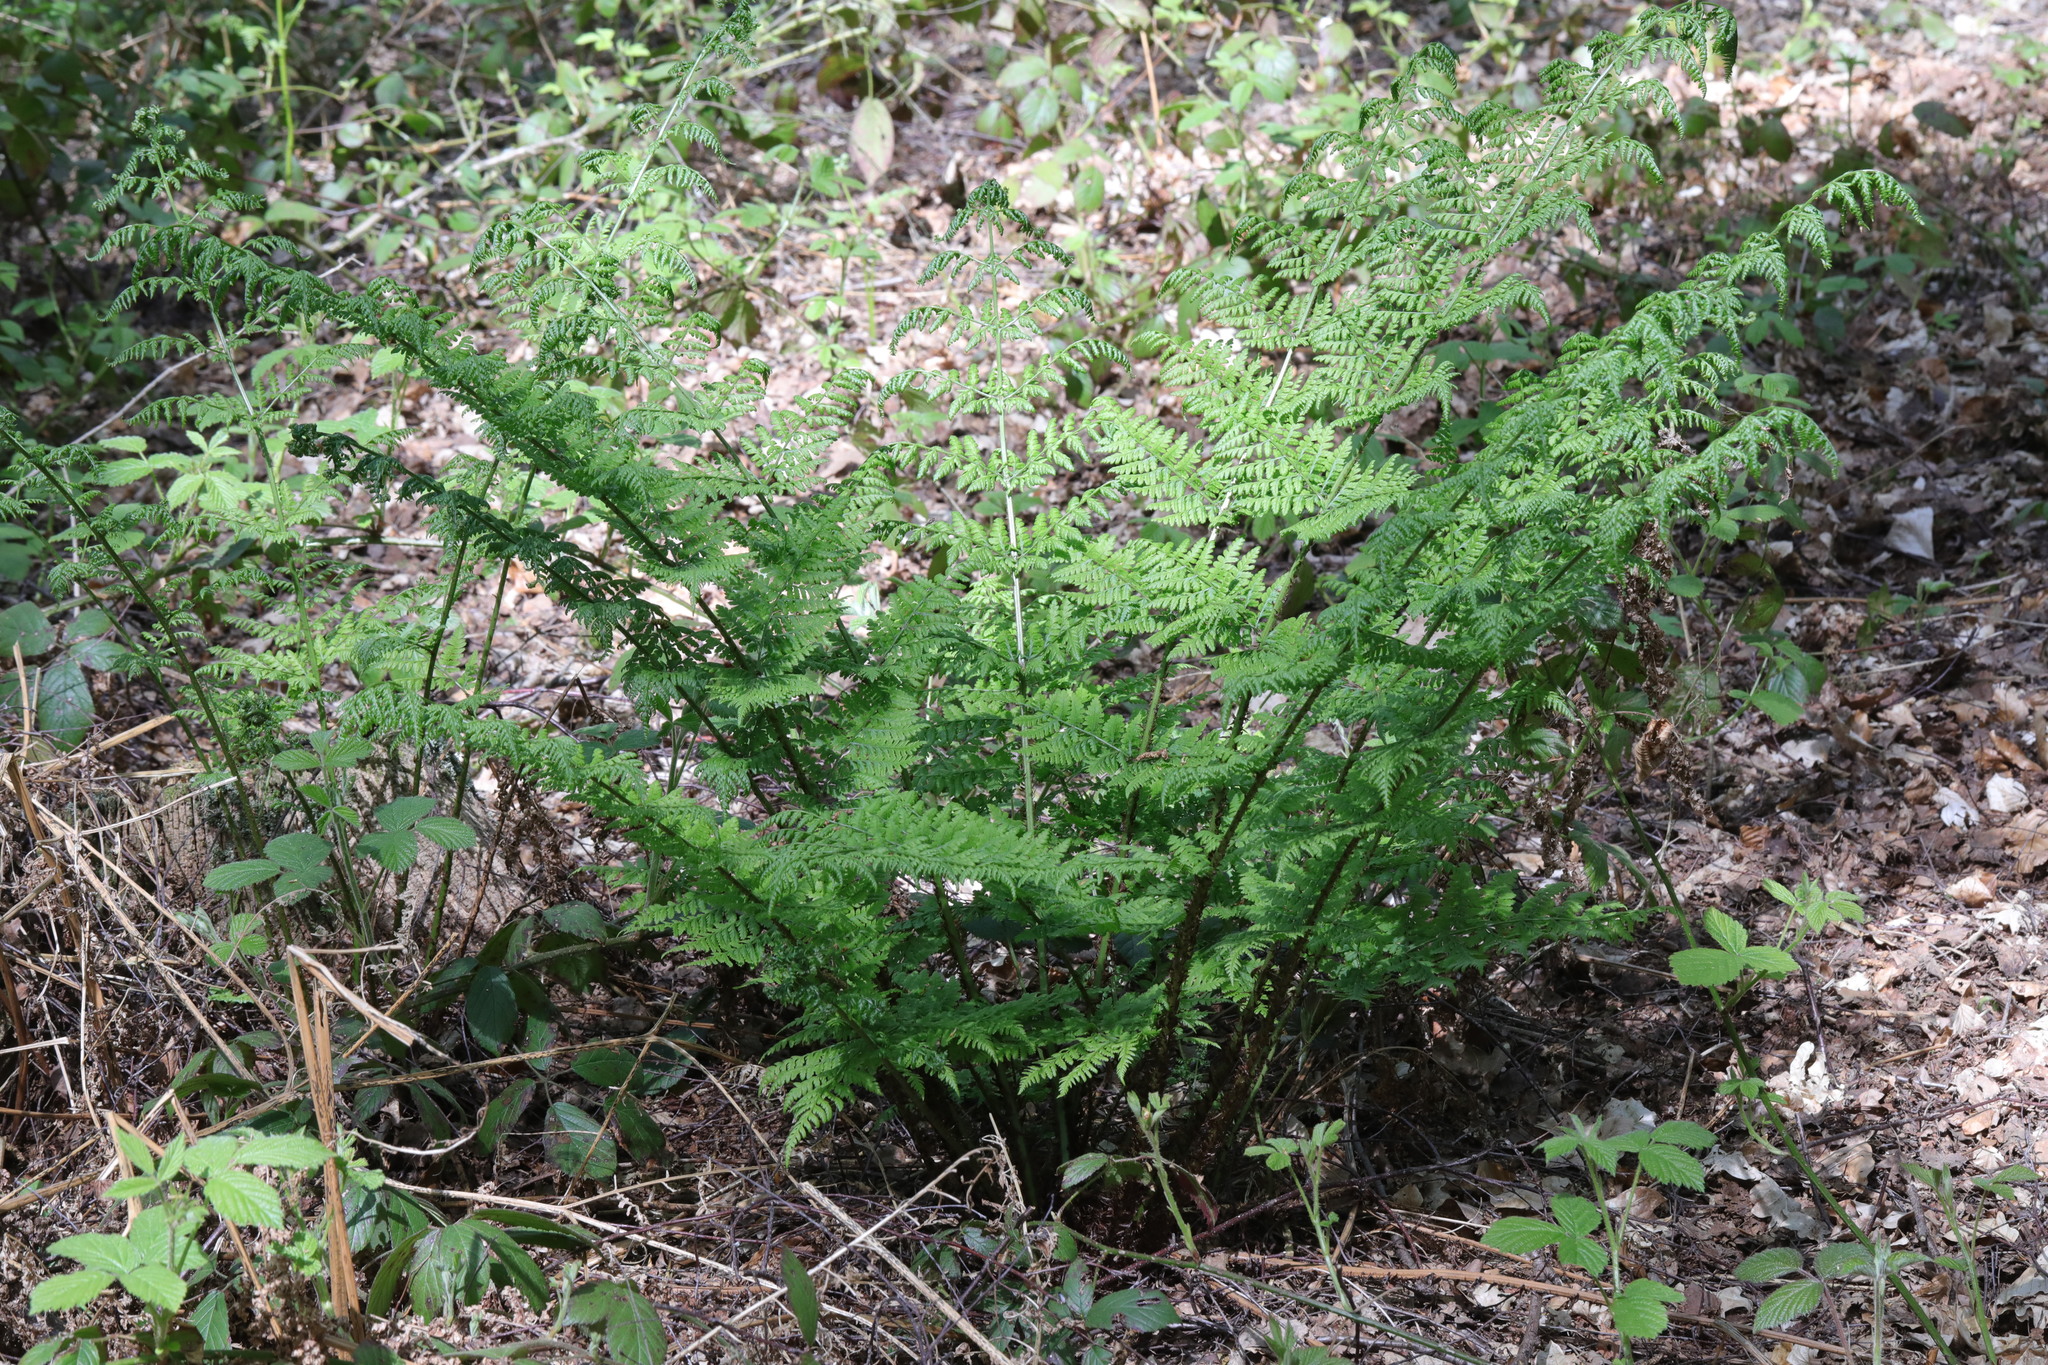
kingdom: Plantae
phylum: Tracheophyta
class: Polypodiopsida
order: Polypodiales
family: Dryopteridaceae
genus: Dryopteris
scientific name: Dryopteris dilatata
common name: Broad buckler-fern
